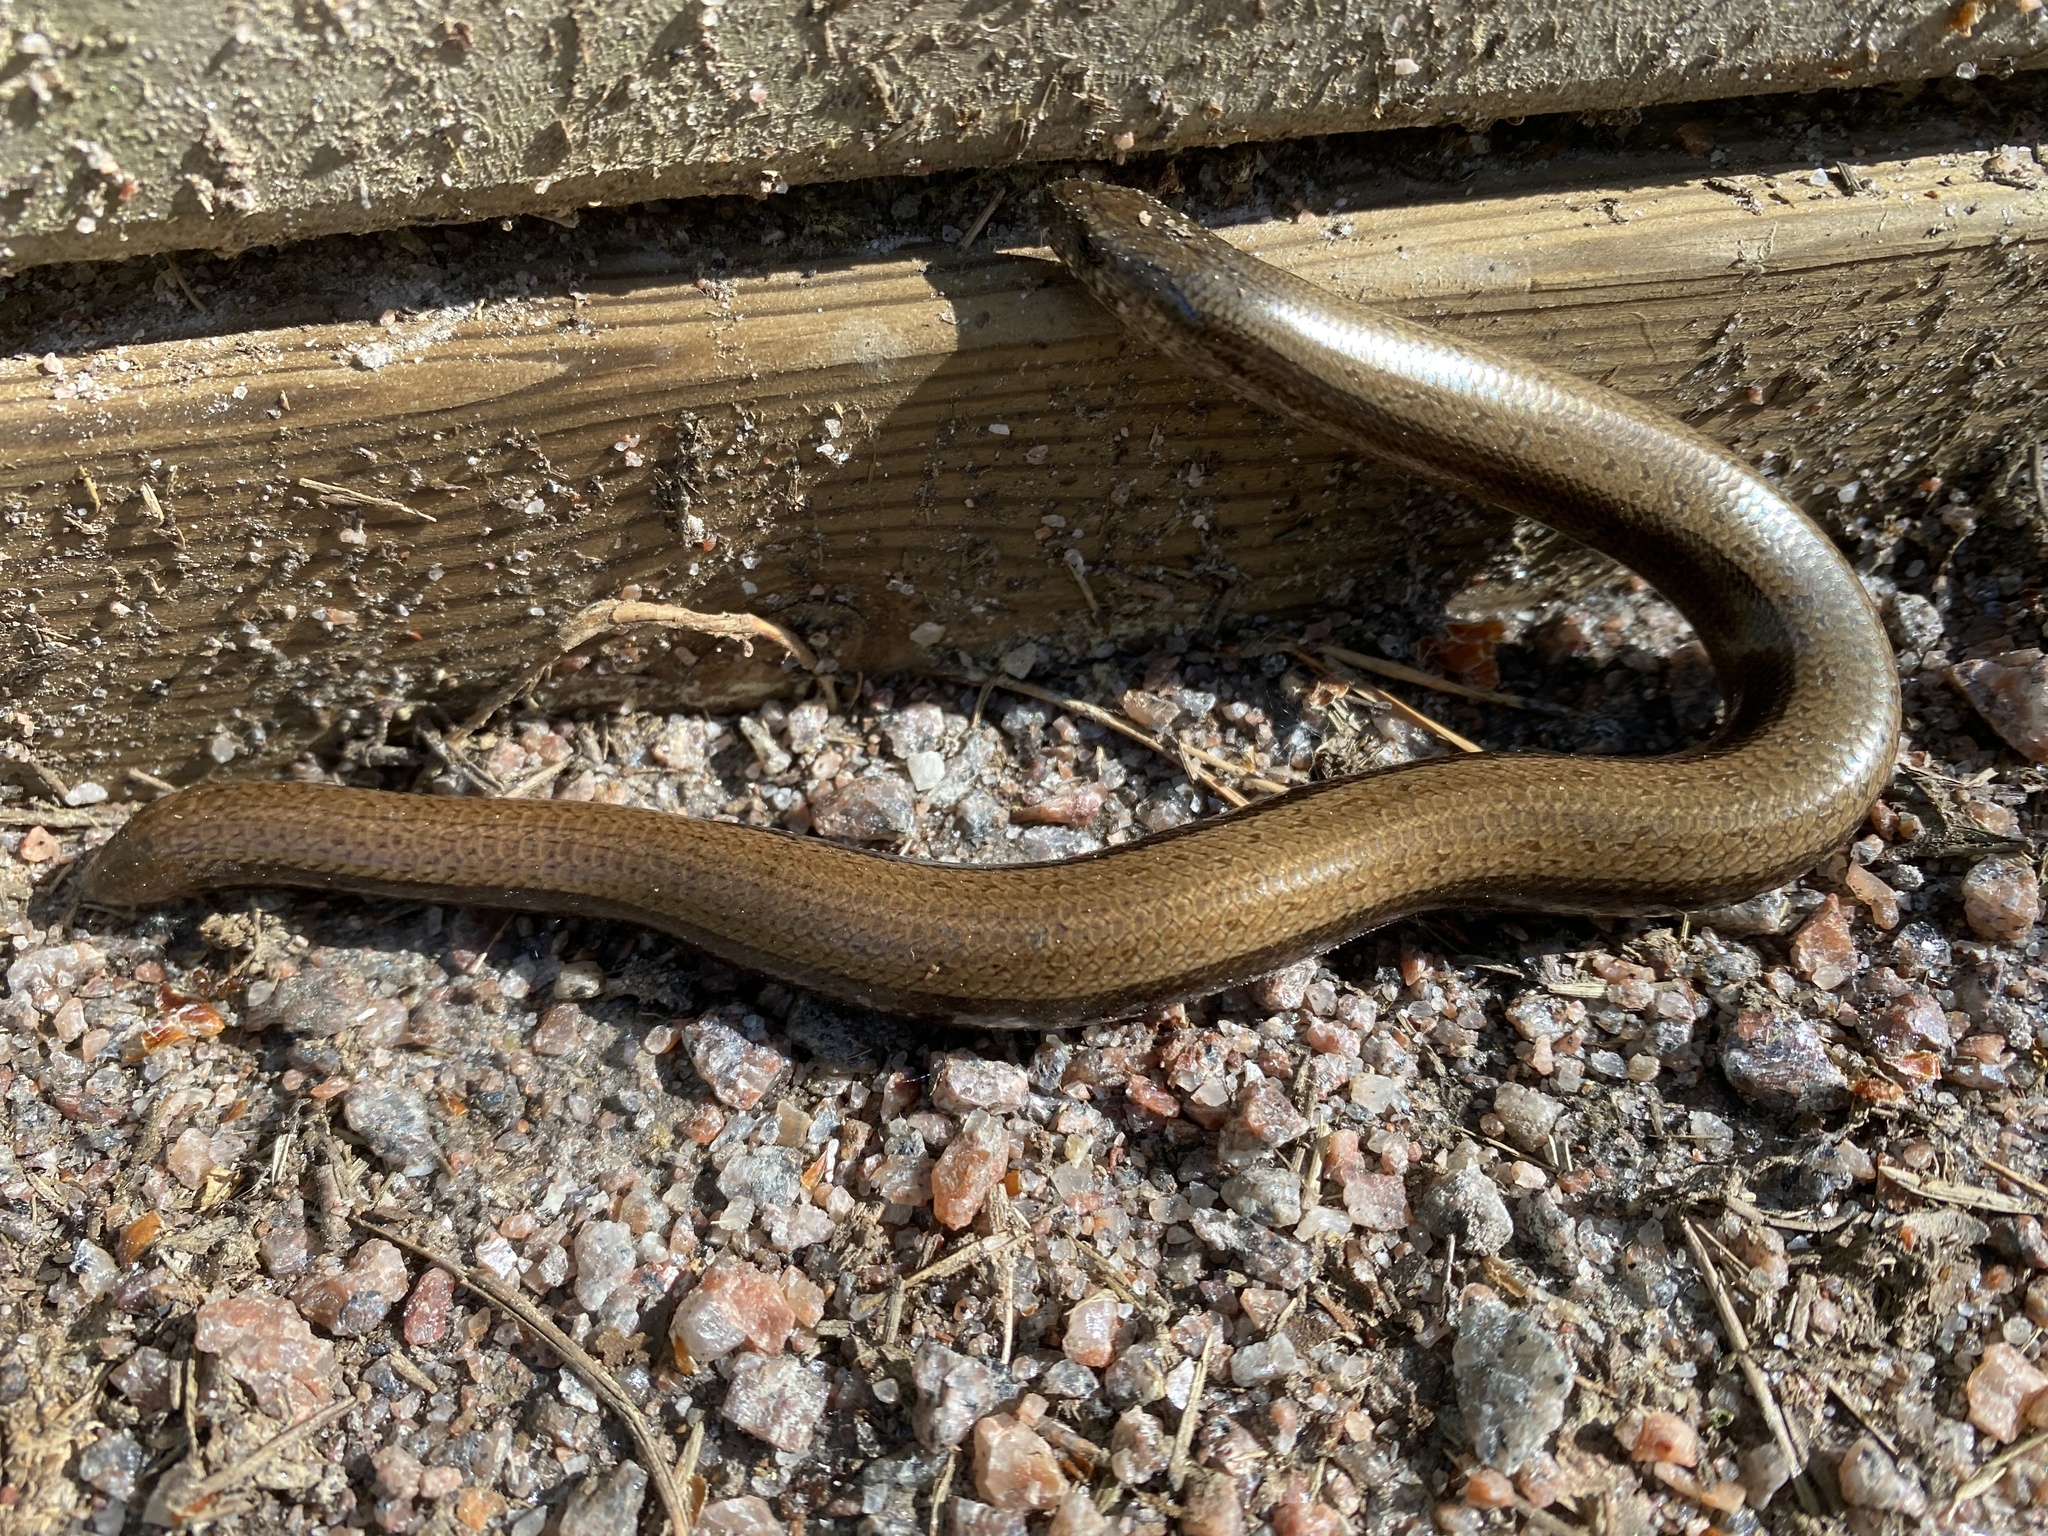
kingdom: Animalia
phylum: Chordata
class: Squamata
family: Anguidae
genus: Anguis
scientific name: Anguis colchica
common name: Slow worm
